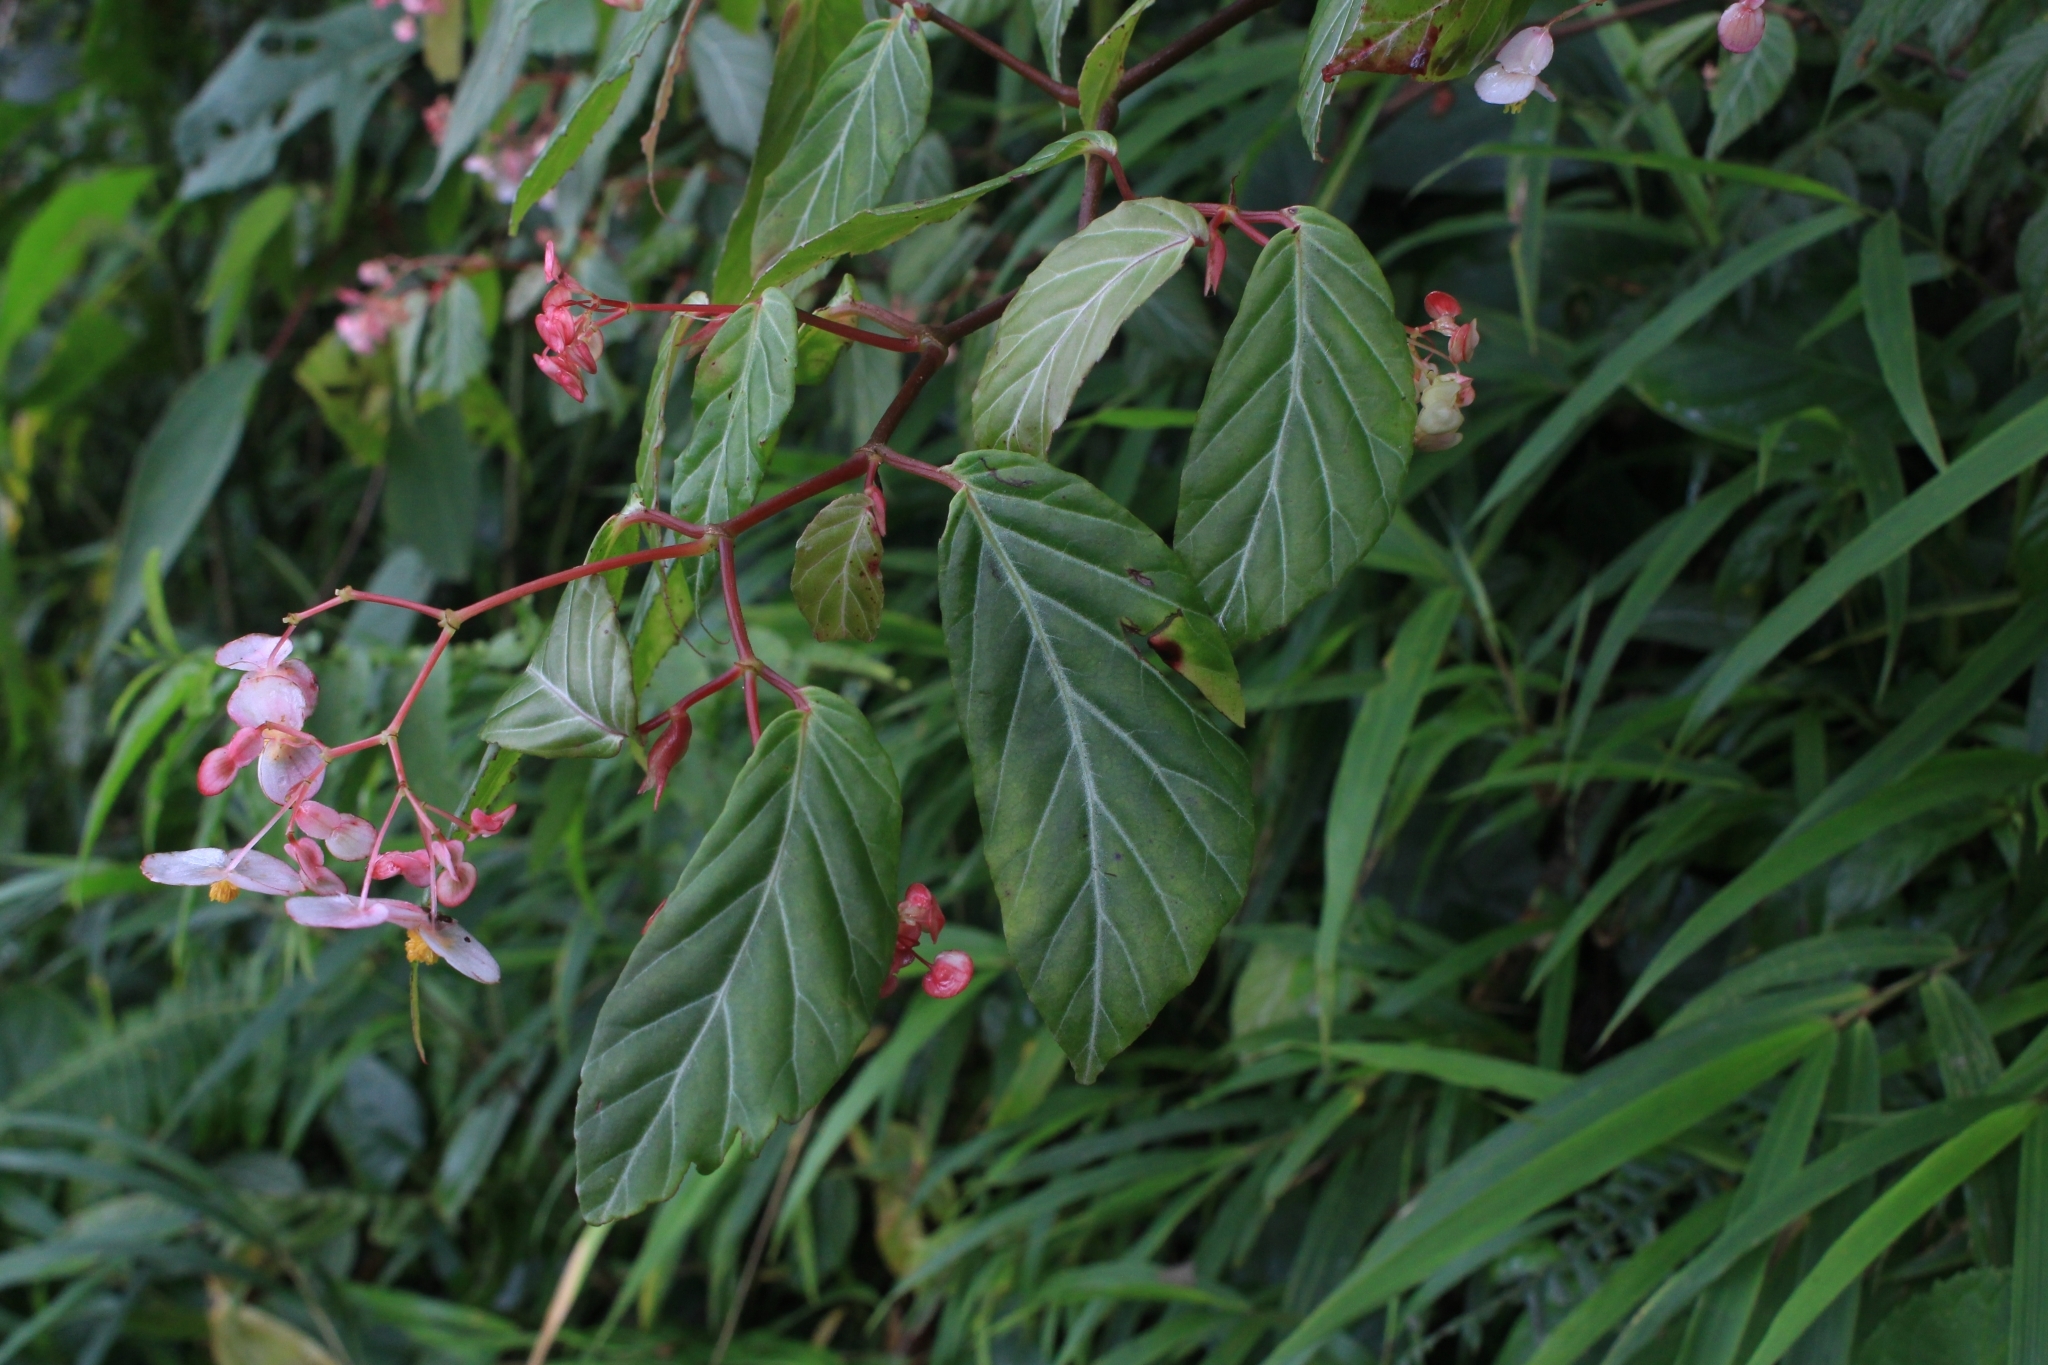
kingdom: Plantae
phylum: Tracheophyta
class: Magnoliopsida
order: Cucurbitales
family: Begoniaceae
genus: Begonia
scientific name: Begonia estrellensis
